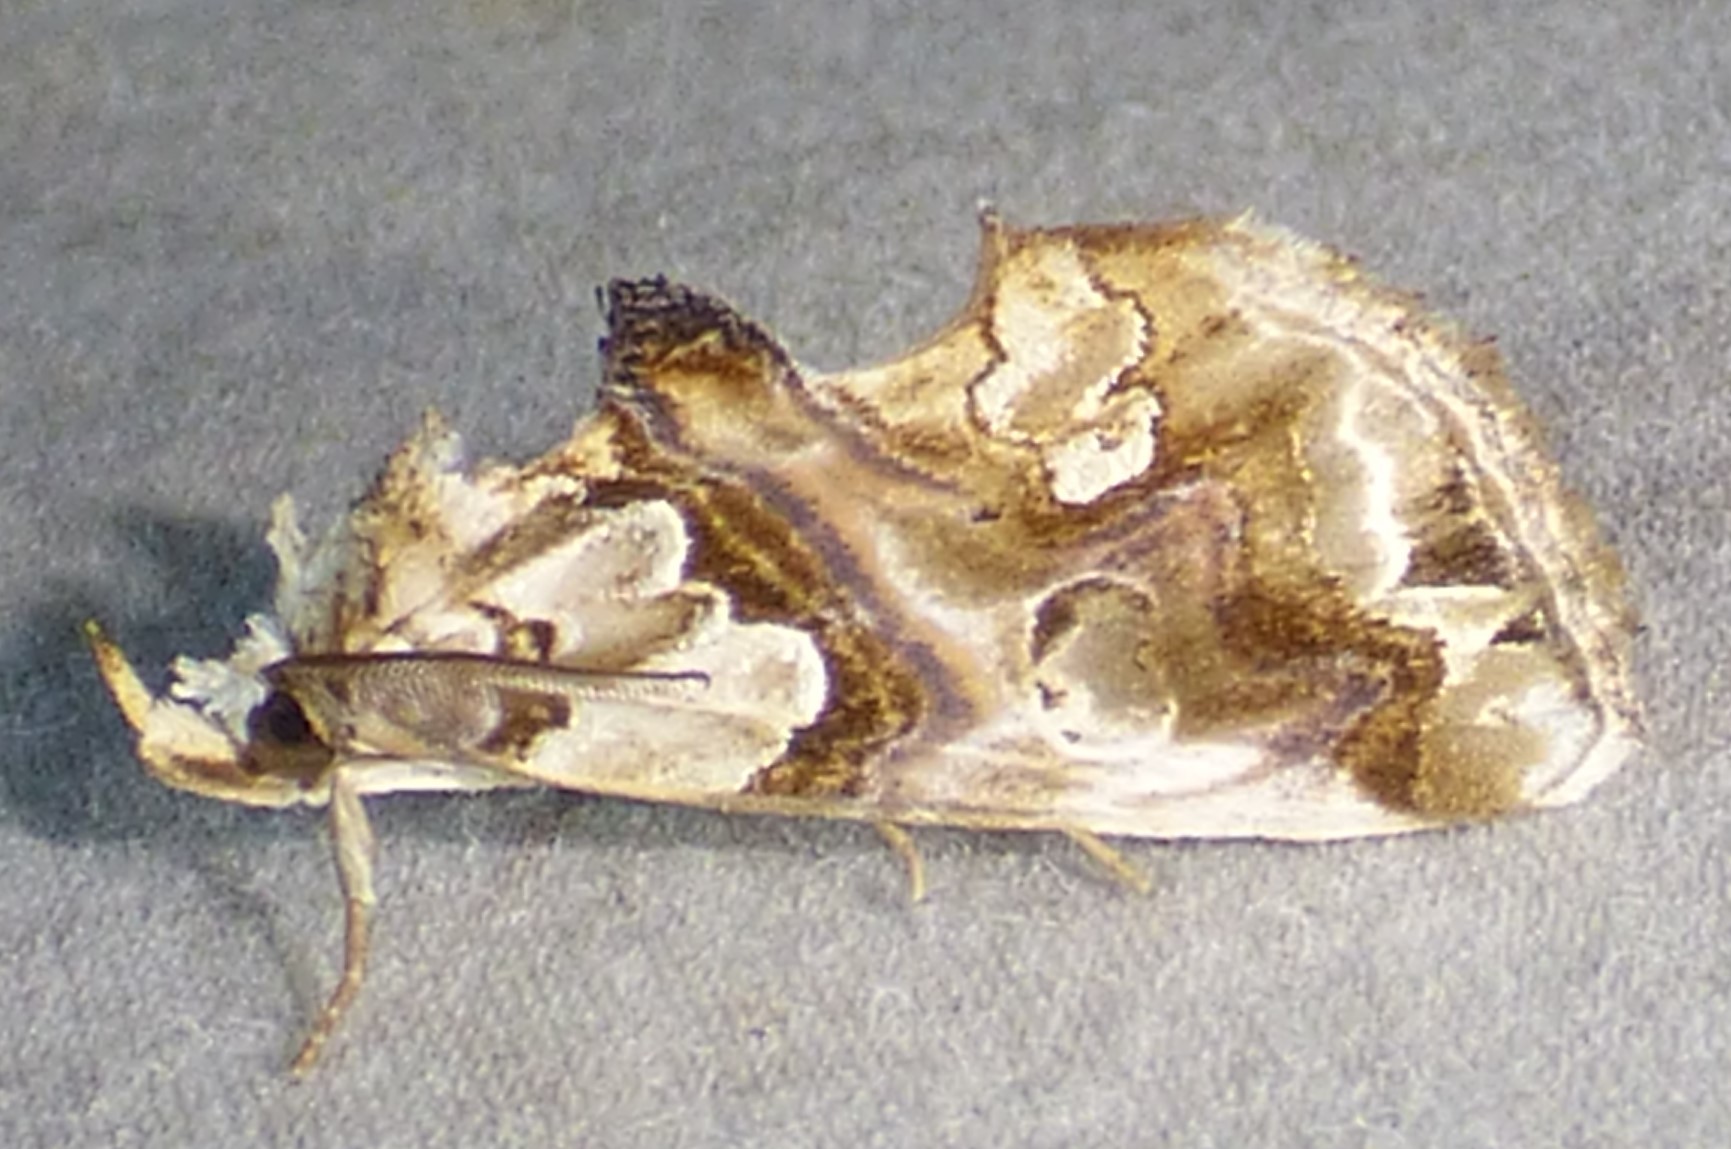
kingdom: Animalia
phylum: Arthropoda
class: Insecta
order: Lepidoptera
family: Erebidae
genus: Plusiodonta
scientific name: Plusiodonta compressipalpis
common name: Moonseed moth
